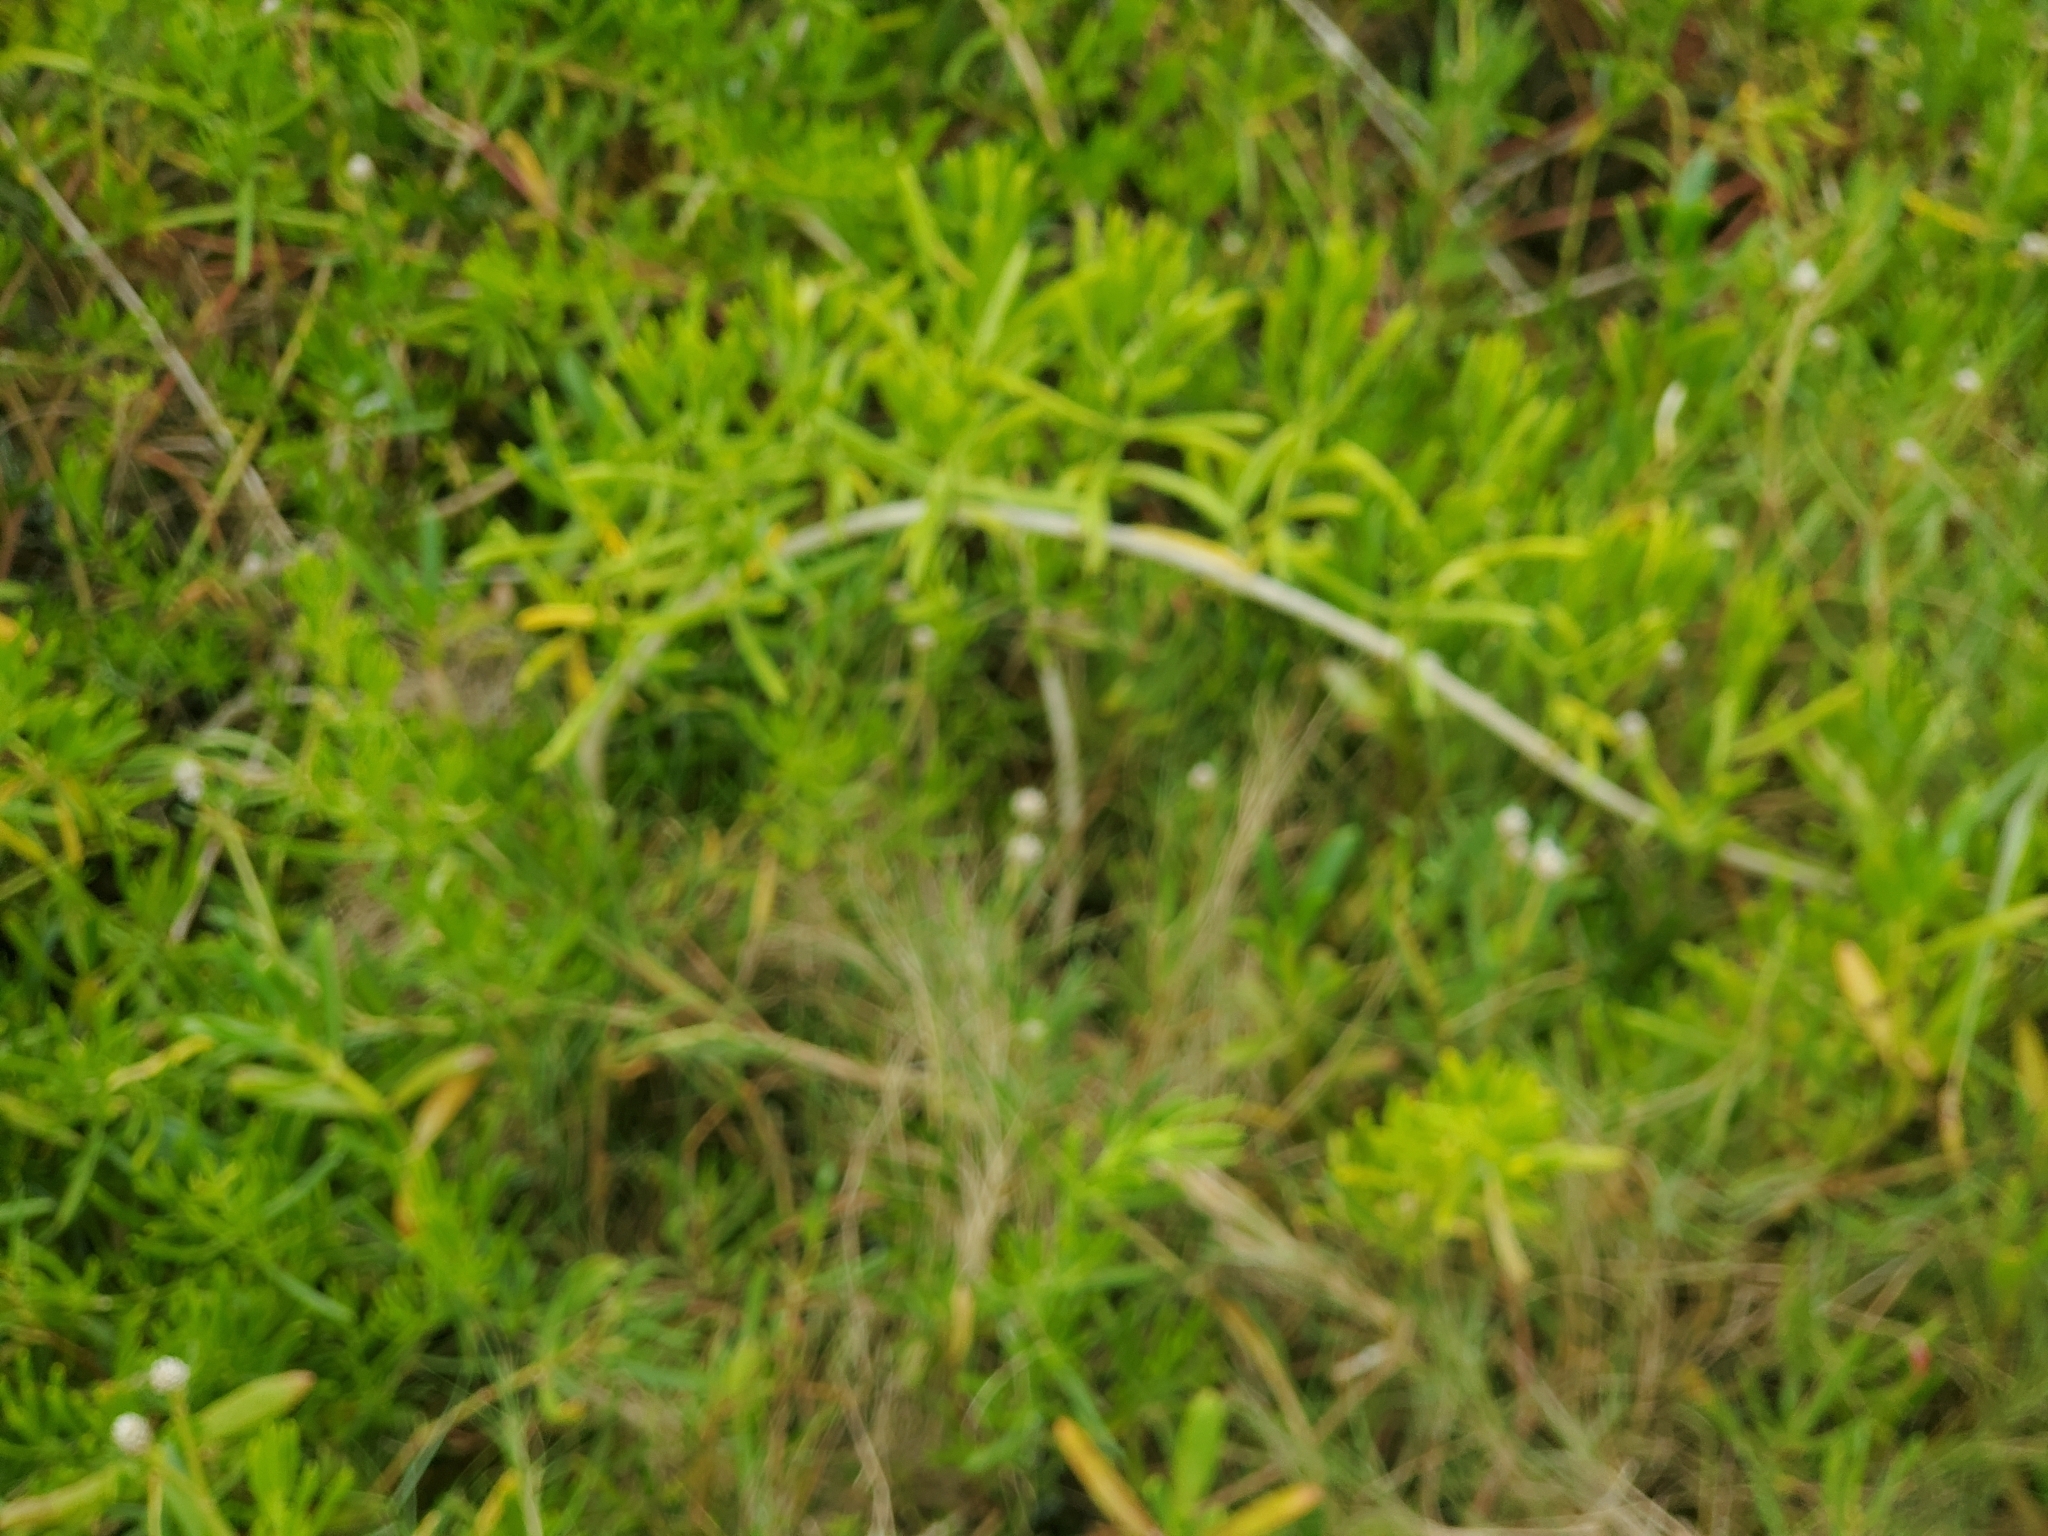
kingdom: Plantae
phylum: Tracheophyta
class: Magnoliopsida
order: Brassicales
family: Bataceae
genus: Batis
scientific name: Batis maritima
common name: Turtleweed
